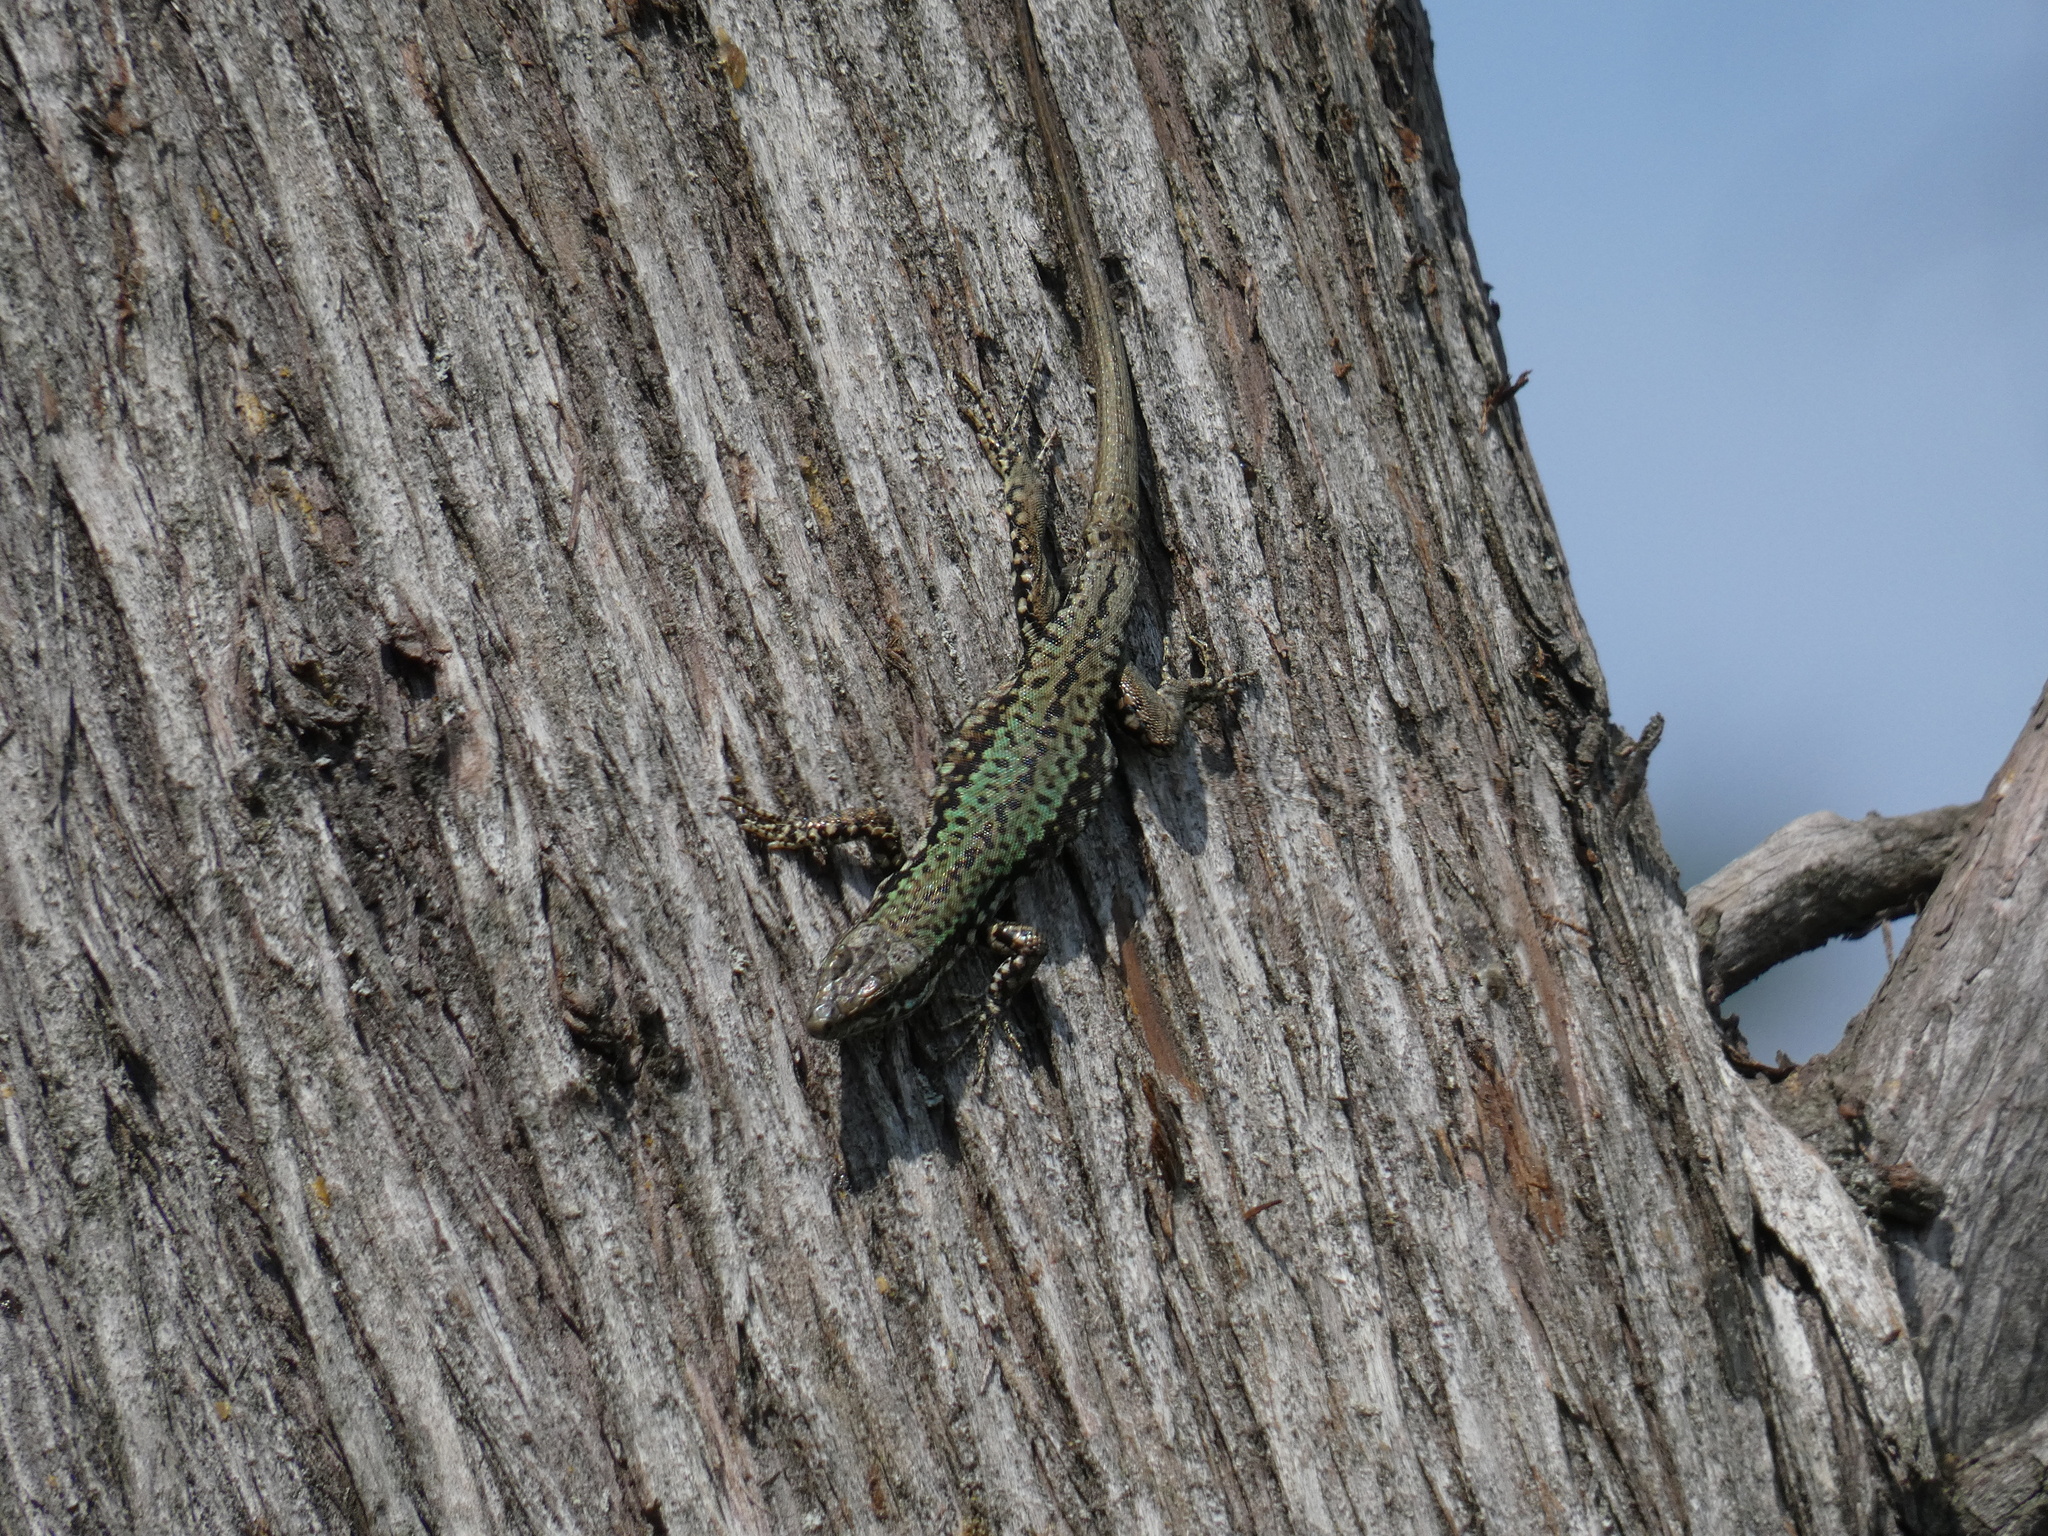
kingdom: Animalia
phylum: Chordata
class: Squamata
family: Lacertidae
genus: Podarcis
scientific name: Podarcis muralis
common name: Common wall lizard
